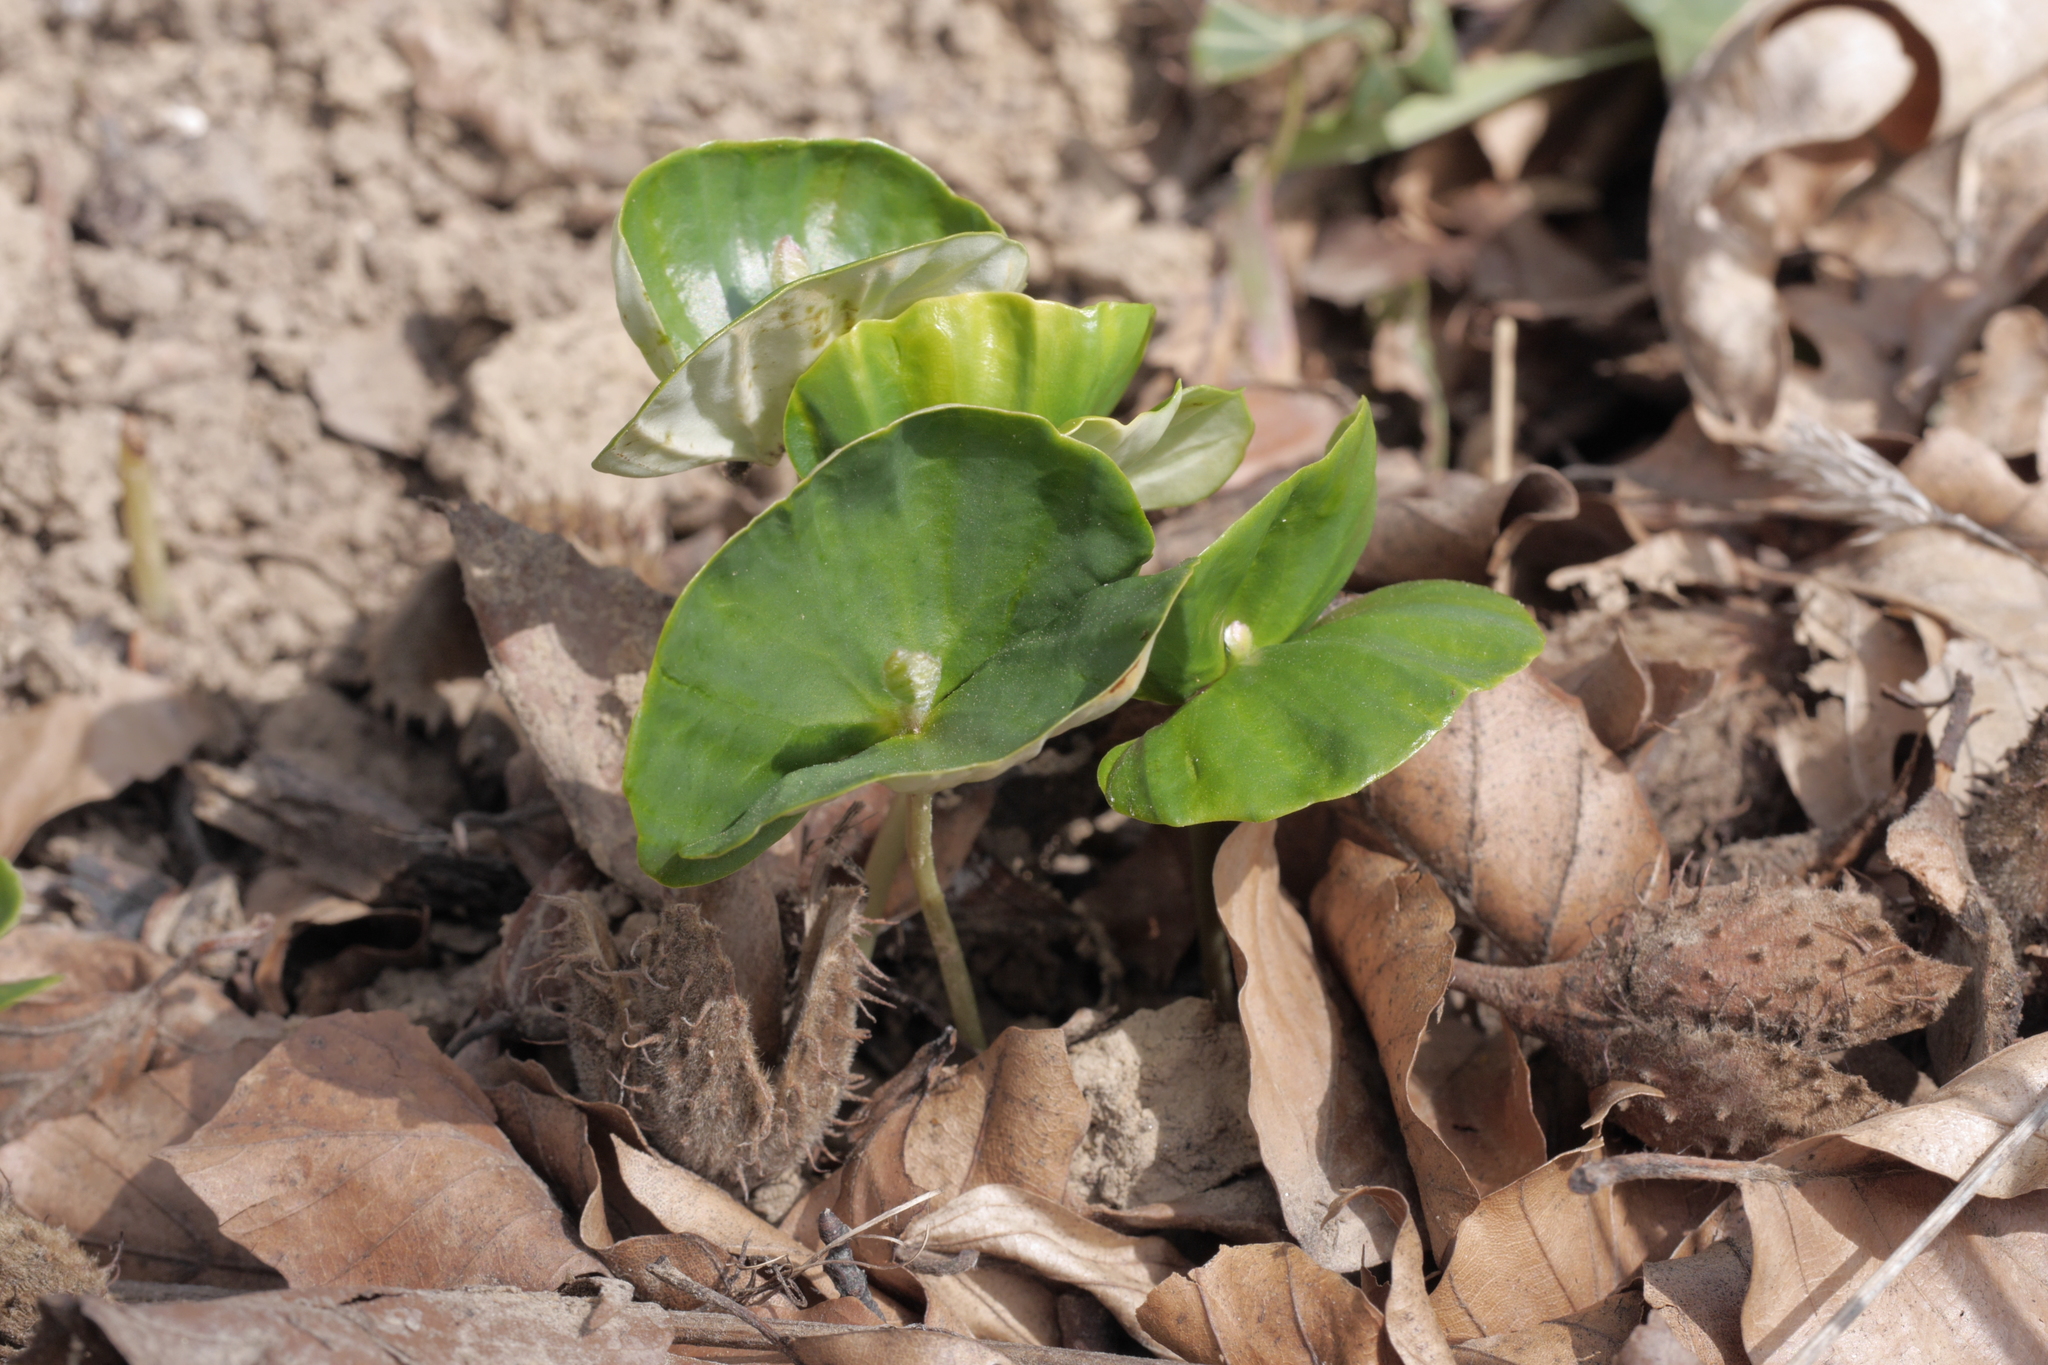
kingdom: Plantae
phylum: Tracheophyta
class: Magnoliopsida
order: Fagales
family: Fagaceae
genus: Fagus
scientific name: Fagus sylvatica
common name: Beech
